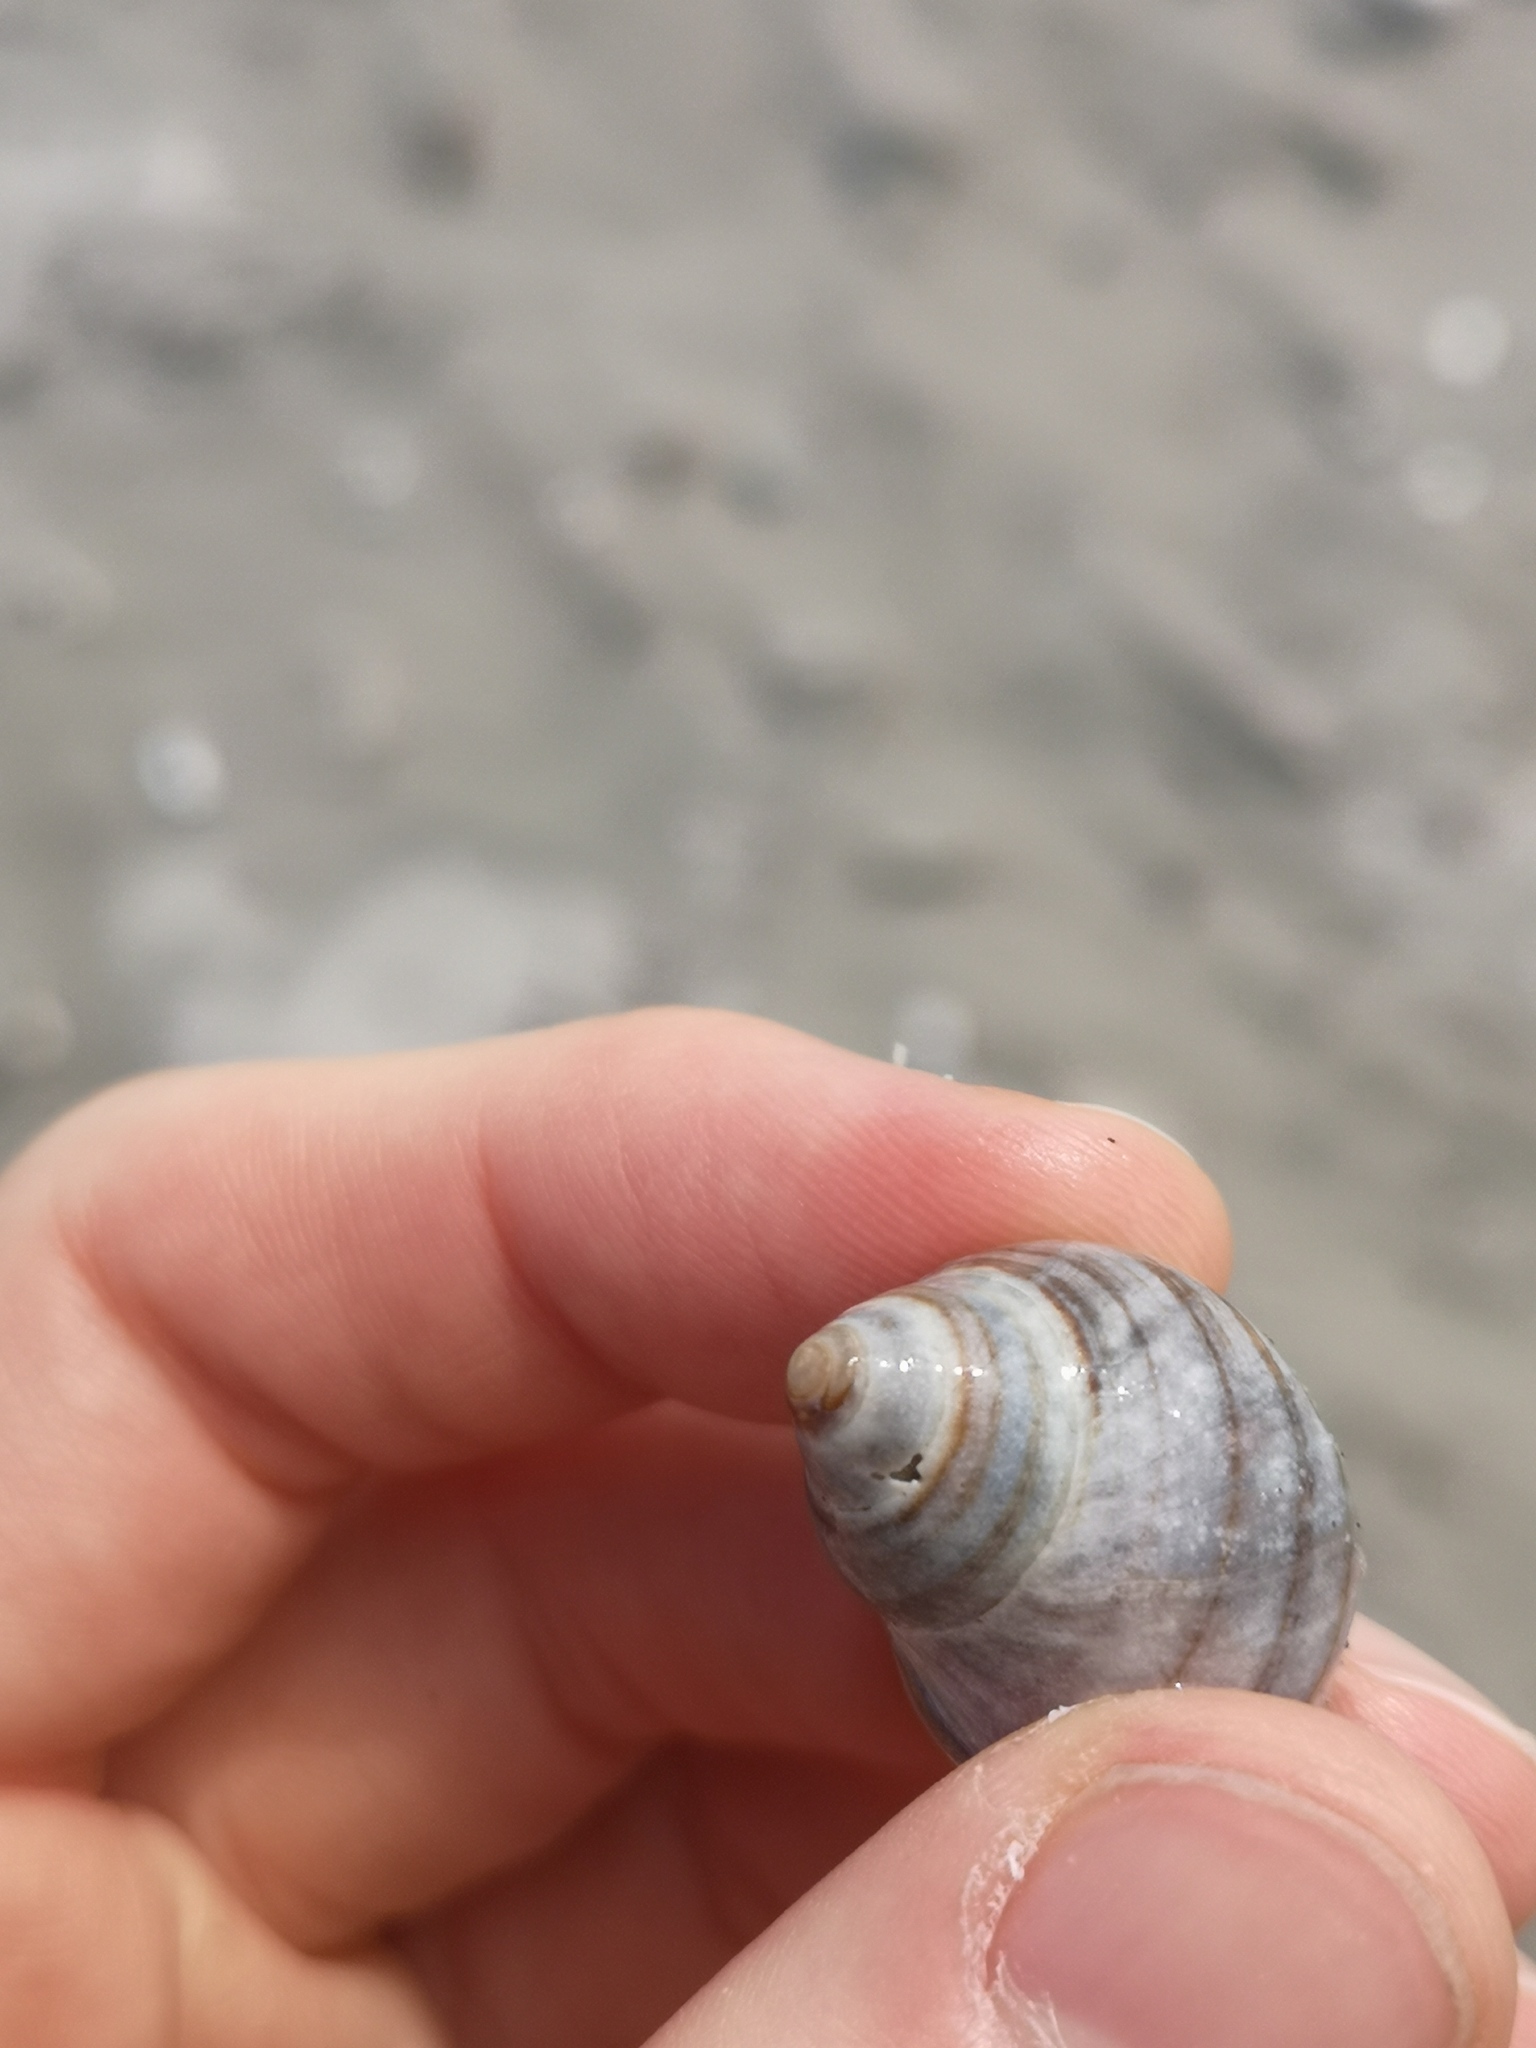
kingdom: Animalia
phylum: Mollusca
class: Gastropoda
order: Littorinimorpha
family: Littorinidae
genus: Littorina
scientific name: Littorina littorea
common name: Common periwinkle
